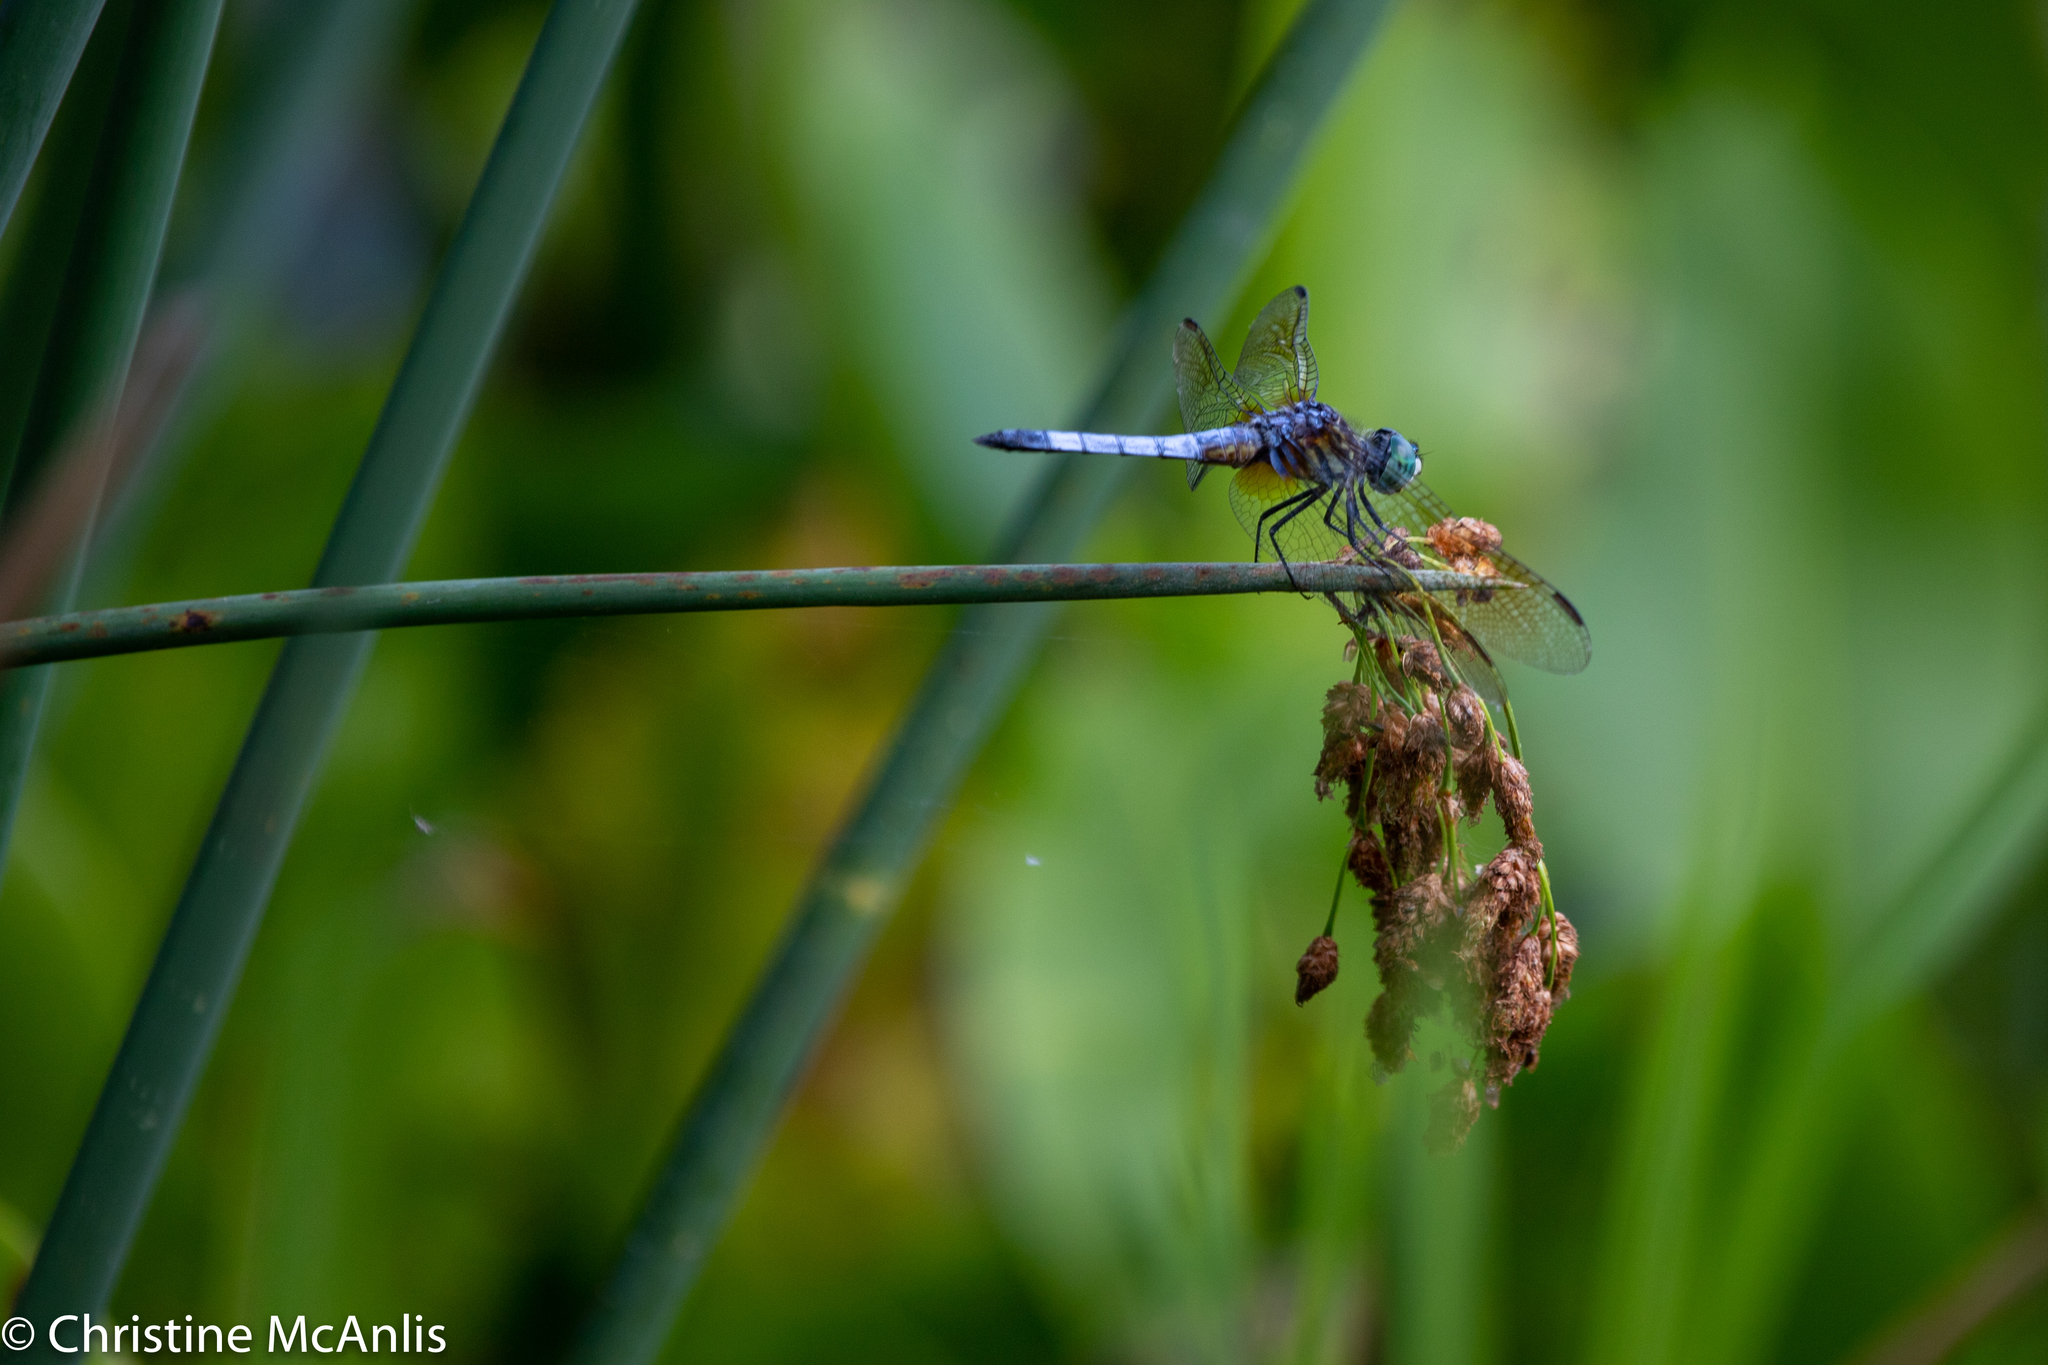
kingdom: Animalia
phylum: Arthropoda
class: Insecta
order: Odonata
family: Libellulidae
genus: Pachydiplax
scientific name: Pachydiplax longipennis
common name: Blue dasher
